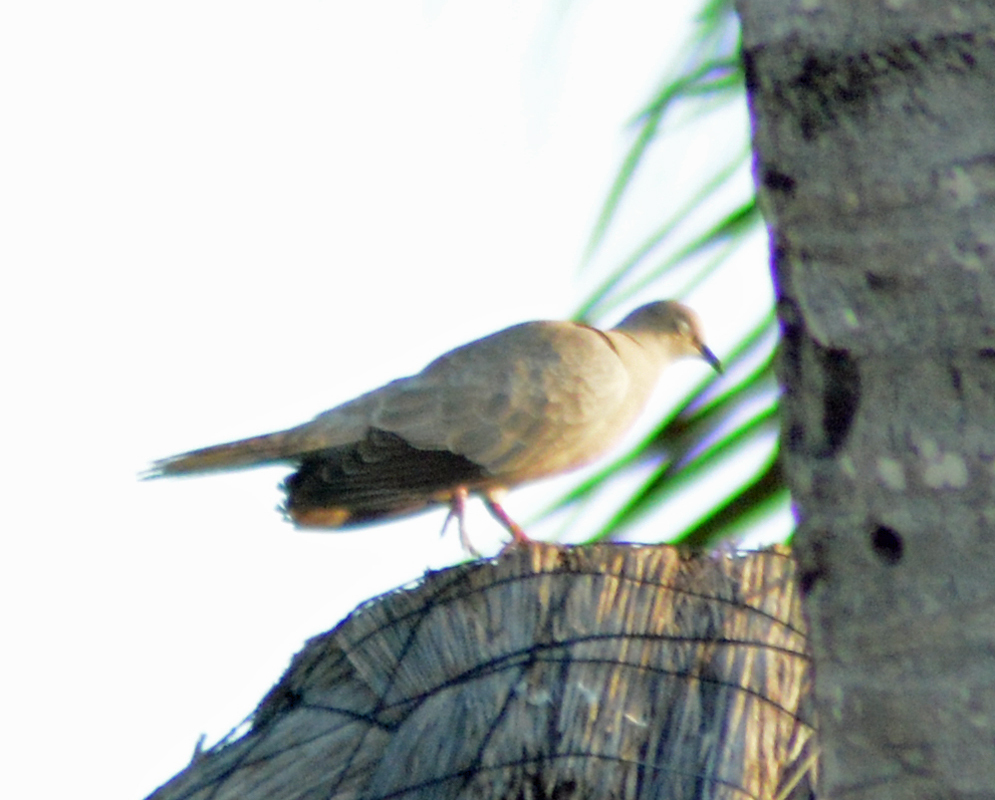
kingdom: Animalia
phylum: Chordata
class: Aves
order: Columbiformes
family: Columbidae
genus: Streptopelia
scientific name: Streptopelia decaocto
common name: Eurasian collared dove
